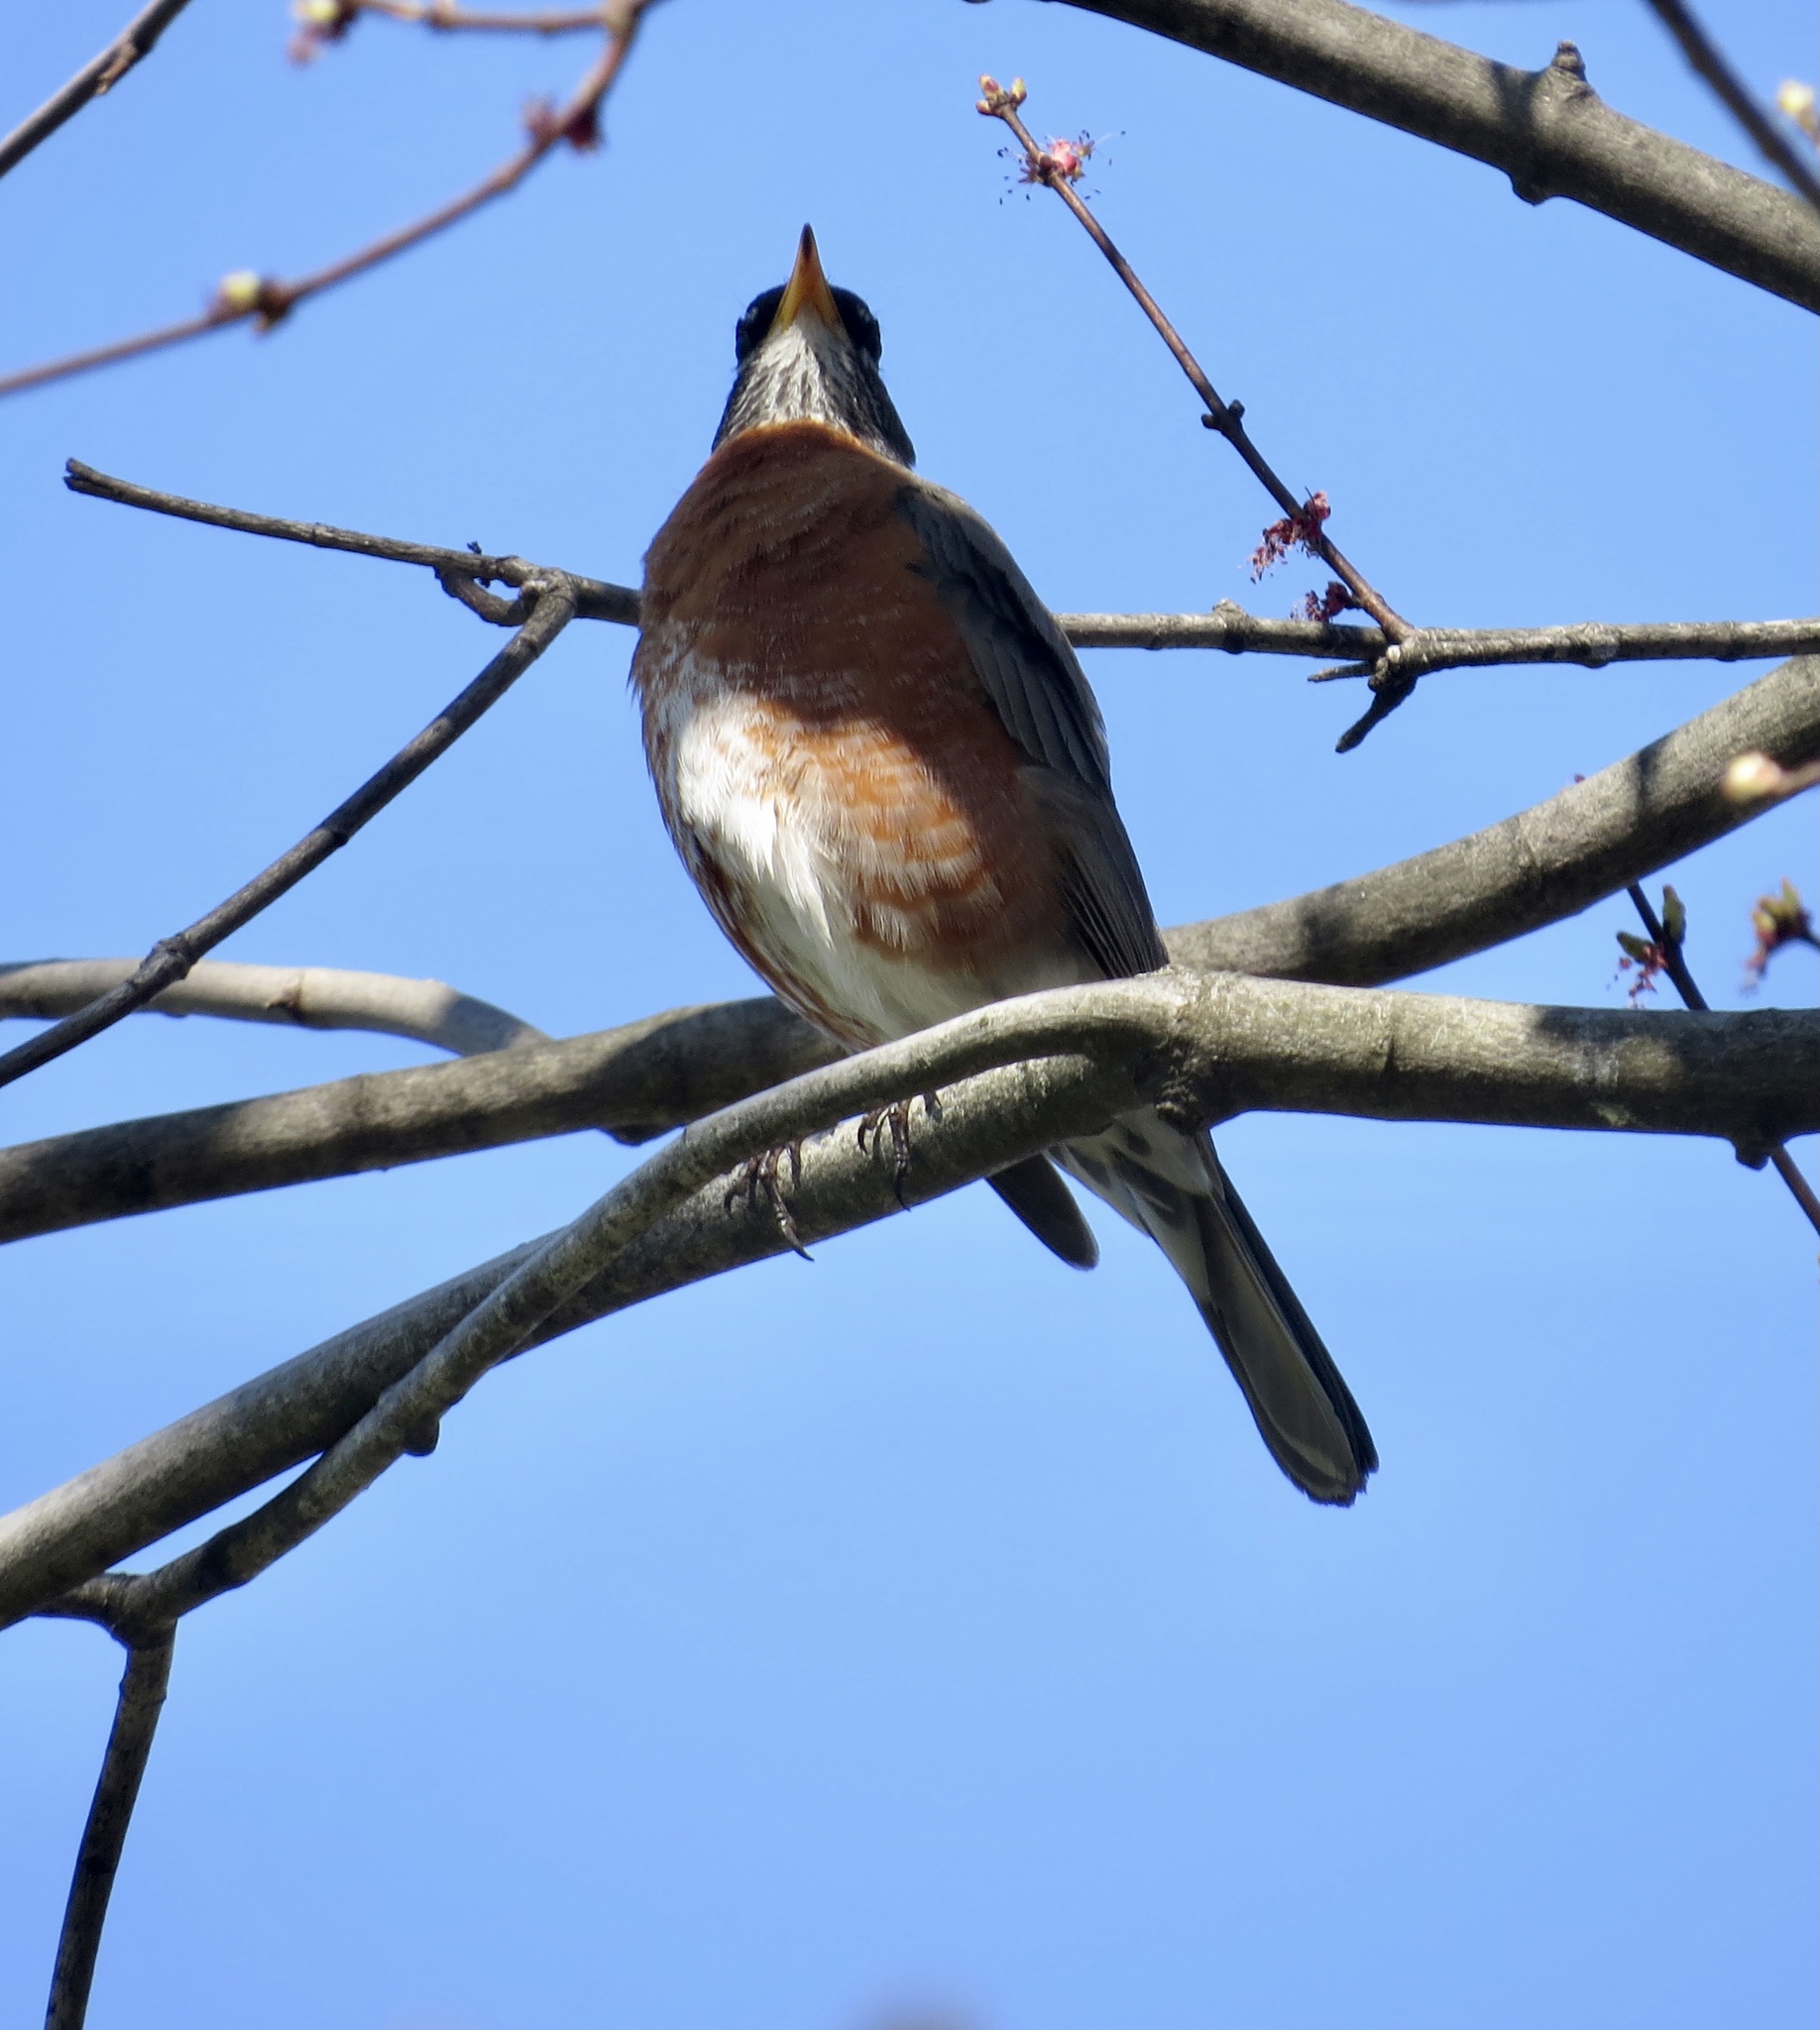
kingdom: Animalia
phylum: Chordata
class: Aves
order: Passeriformes
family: Turdidae
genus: Turdus
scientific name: Turdus migratorius
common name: American robin
